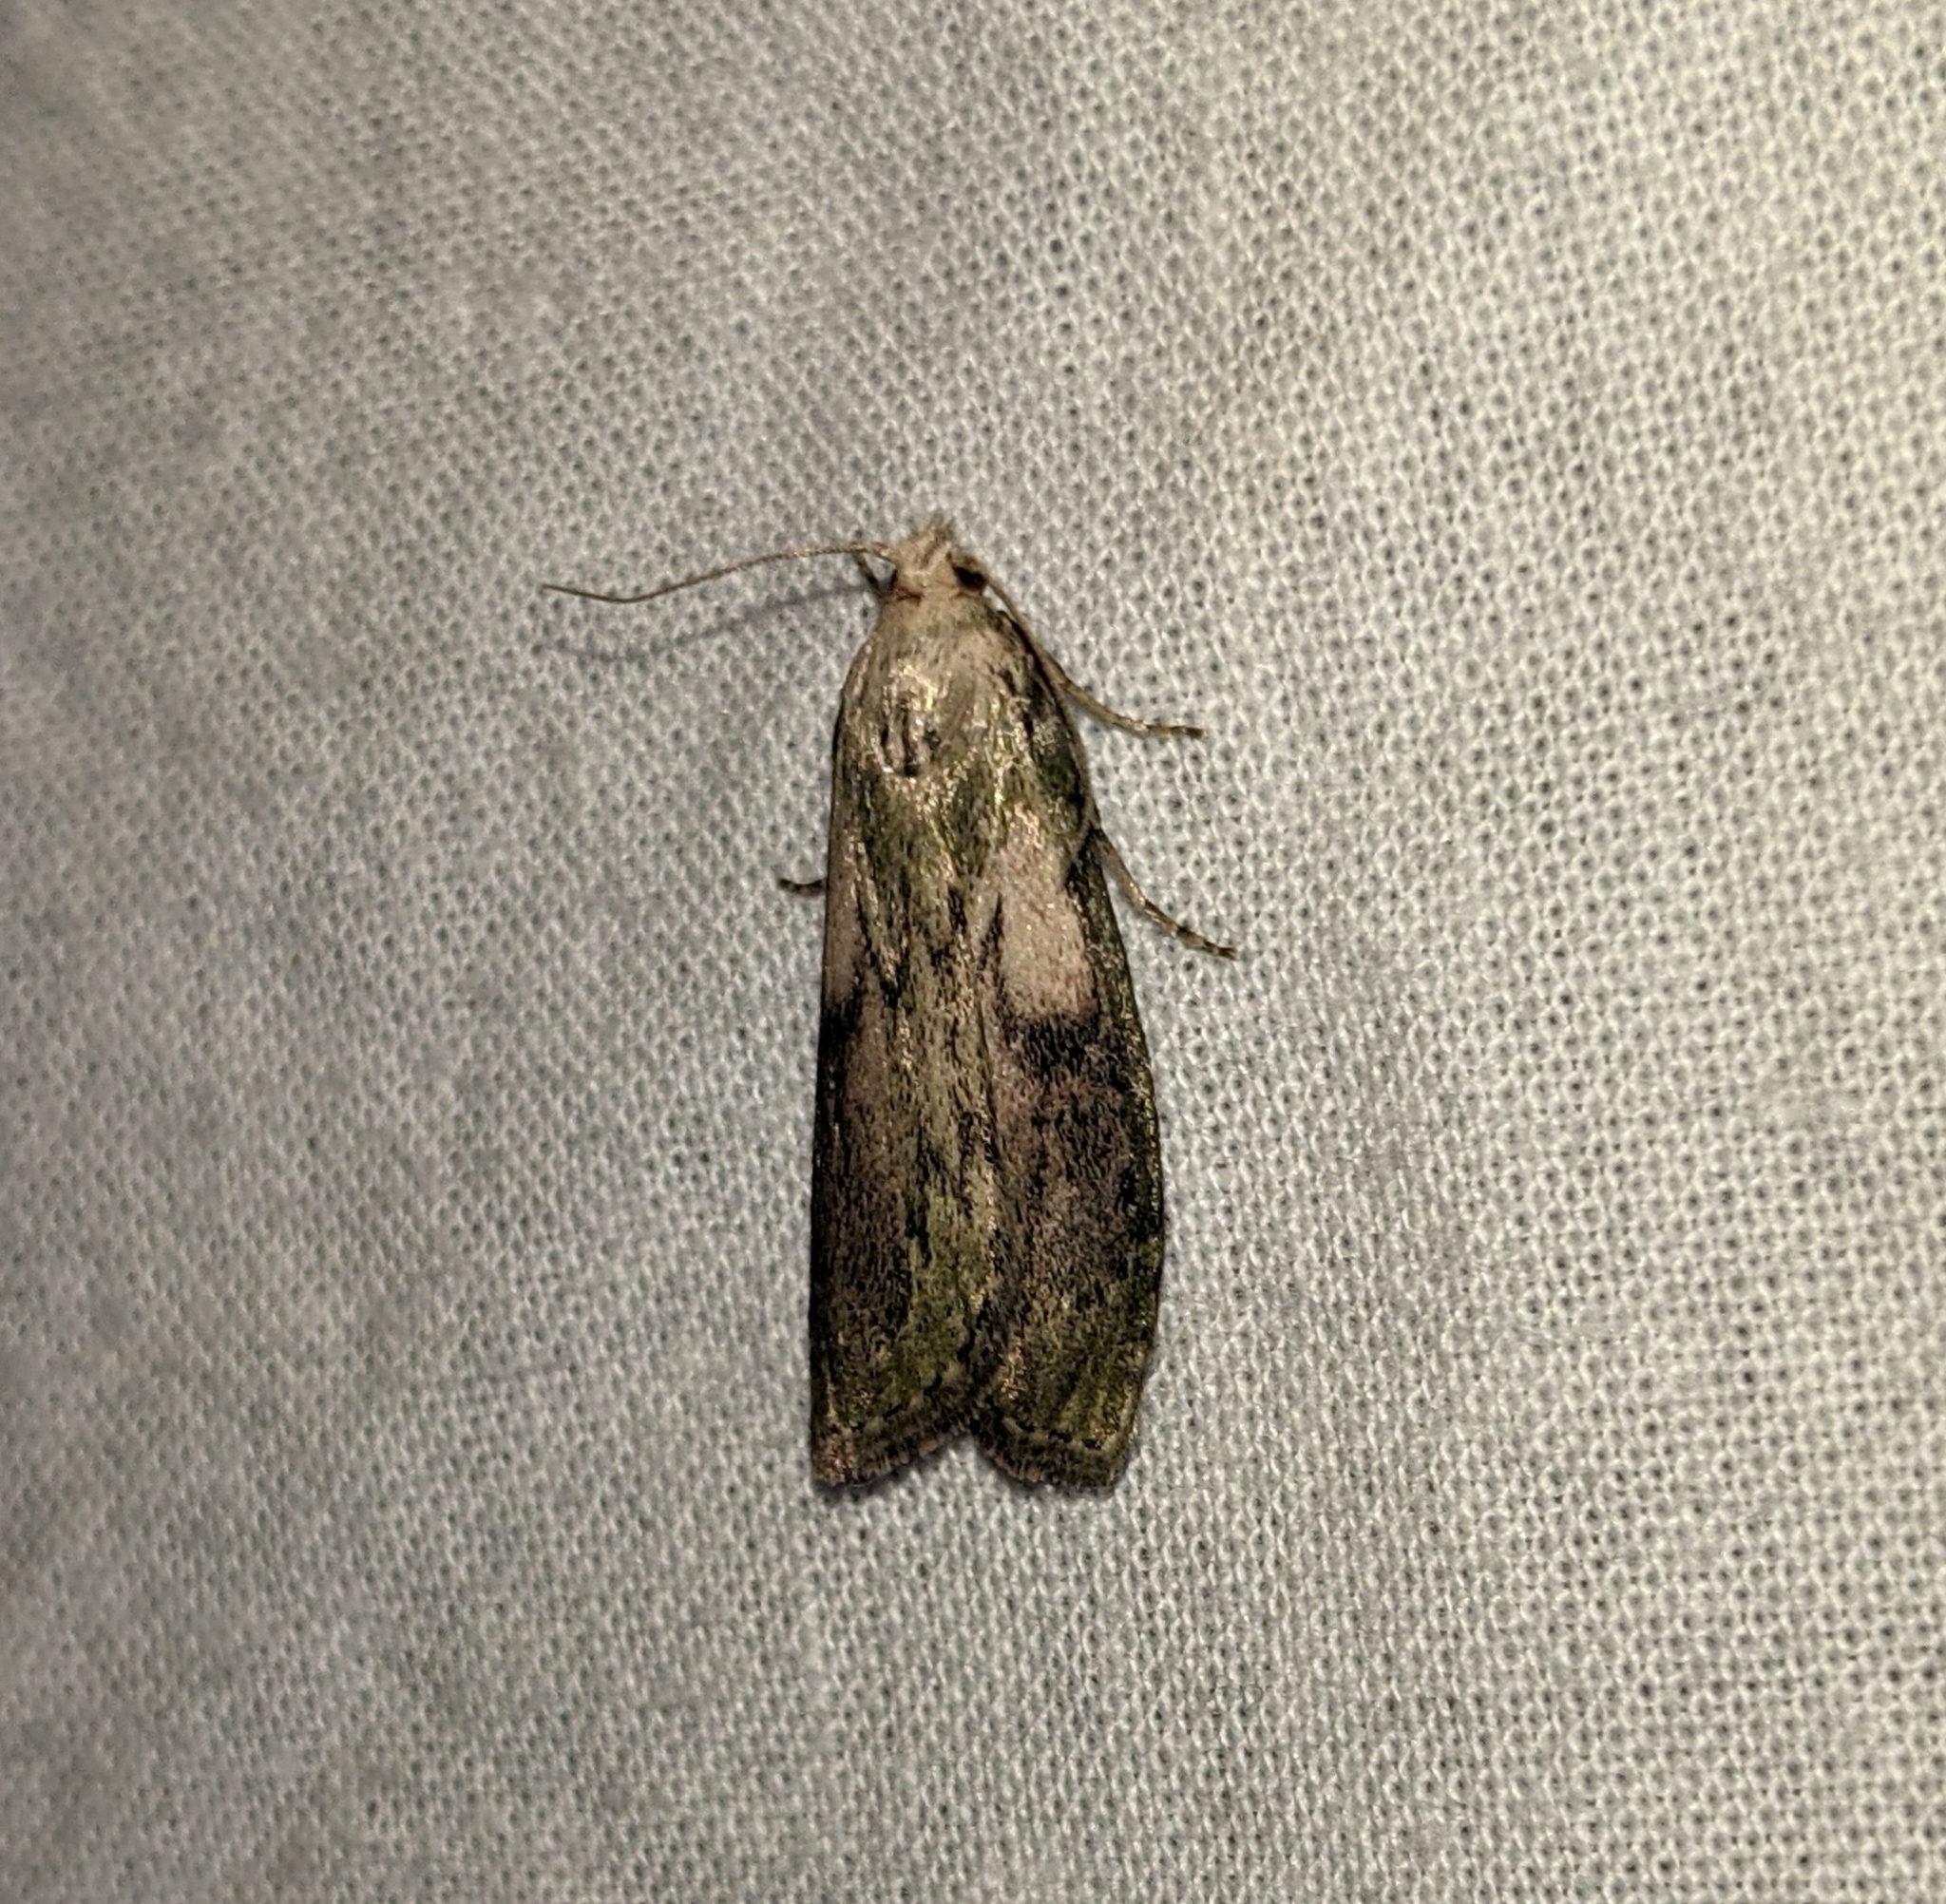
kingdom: Animalia
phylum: Arthropoda
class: Insecta
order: Lepidoptera
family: Pyralidae
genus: Aphomia
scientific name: Aphomia sociella
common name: Bee moth
